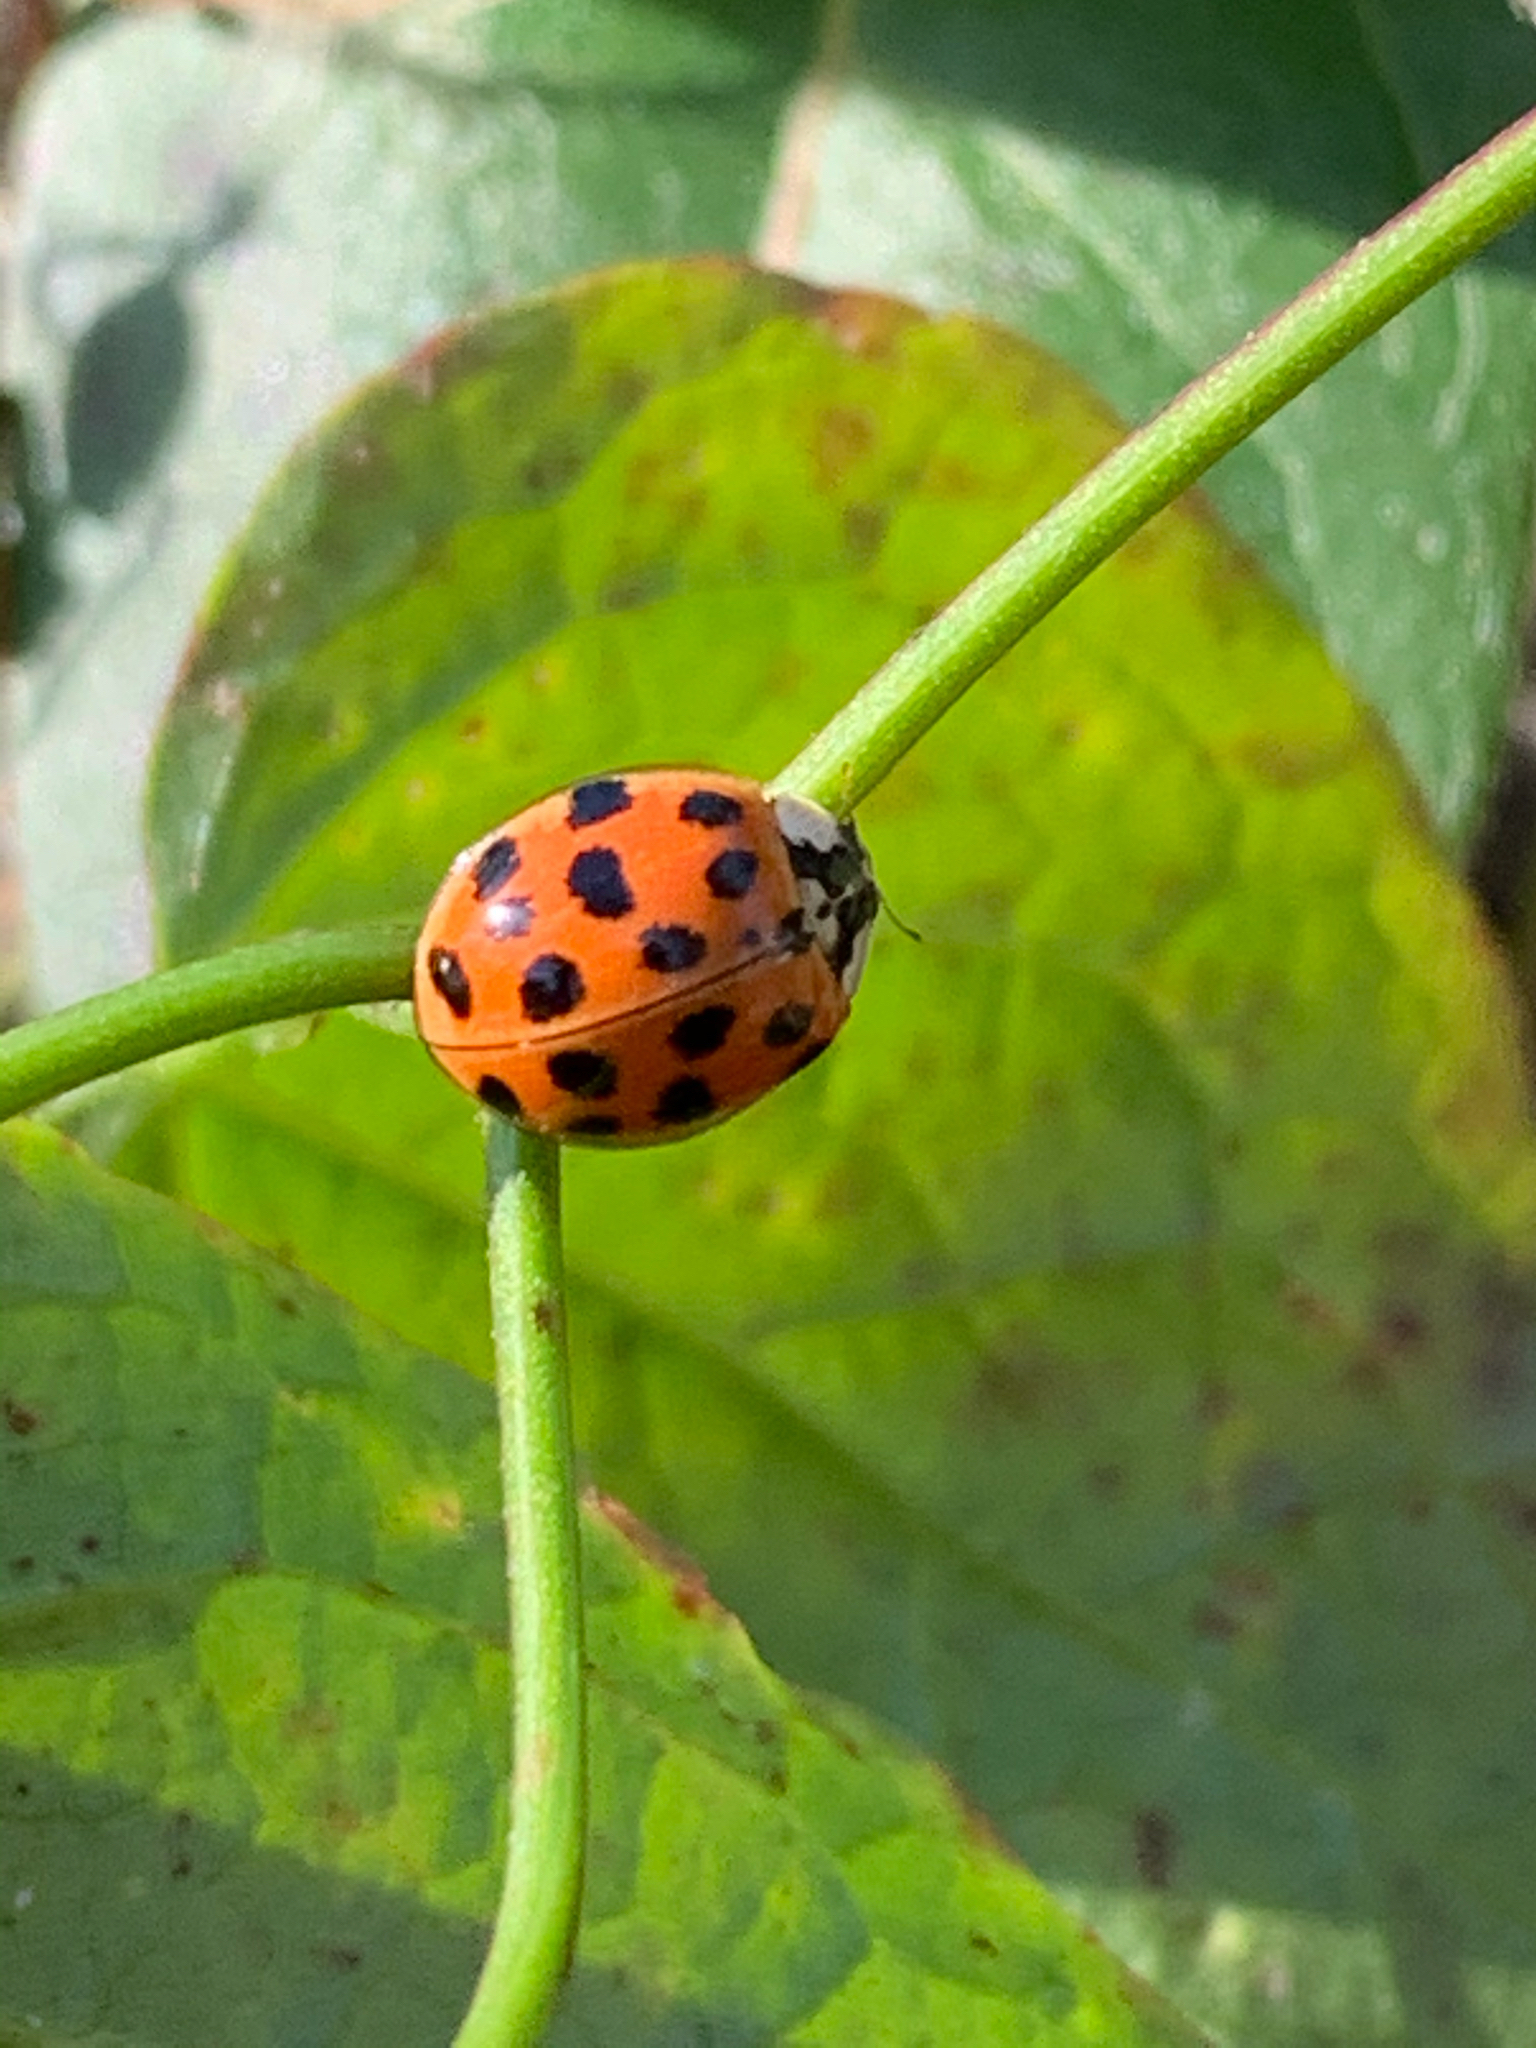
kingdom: Animalia
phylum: Arthropoda
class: Insecta
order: Coleoptera
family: Coccinellidae
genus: Harmonia
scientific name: Harmonia axyridis
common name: Harlequin ladybird
